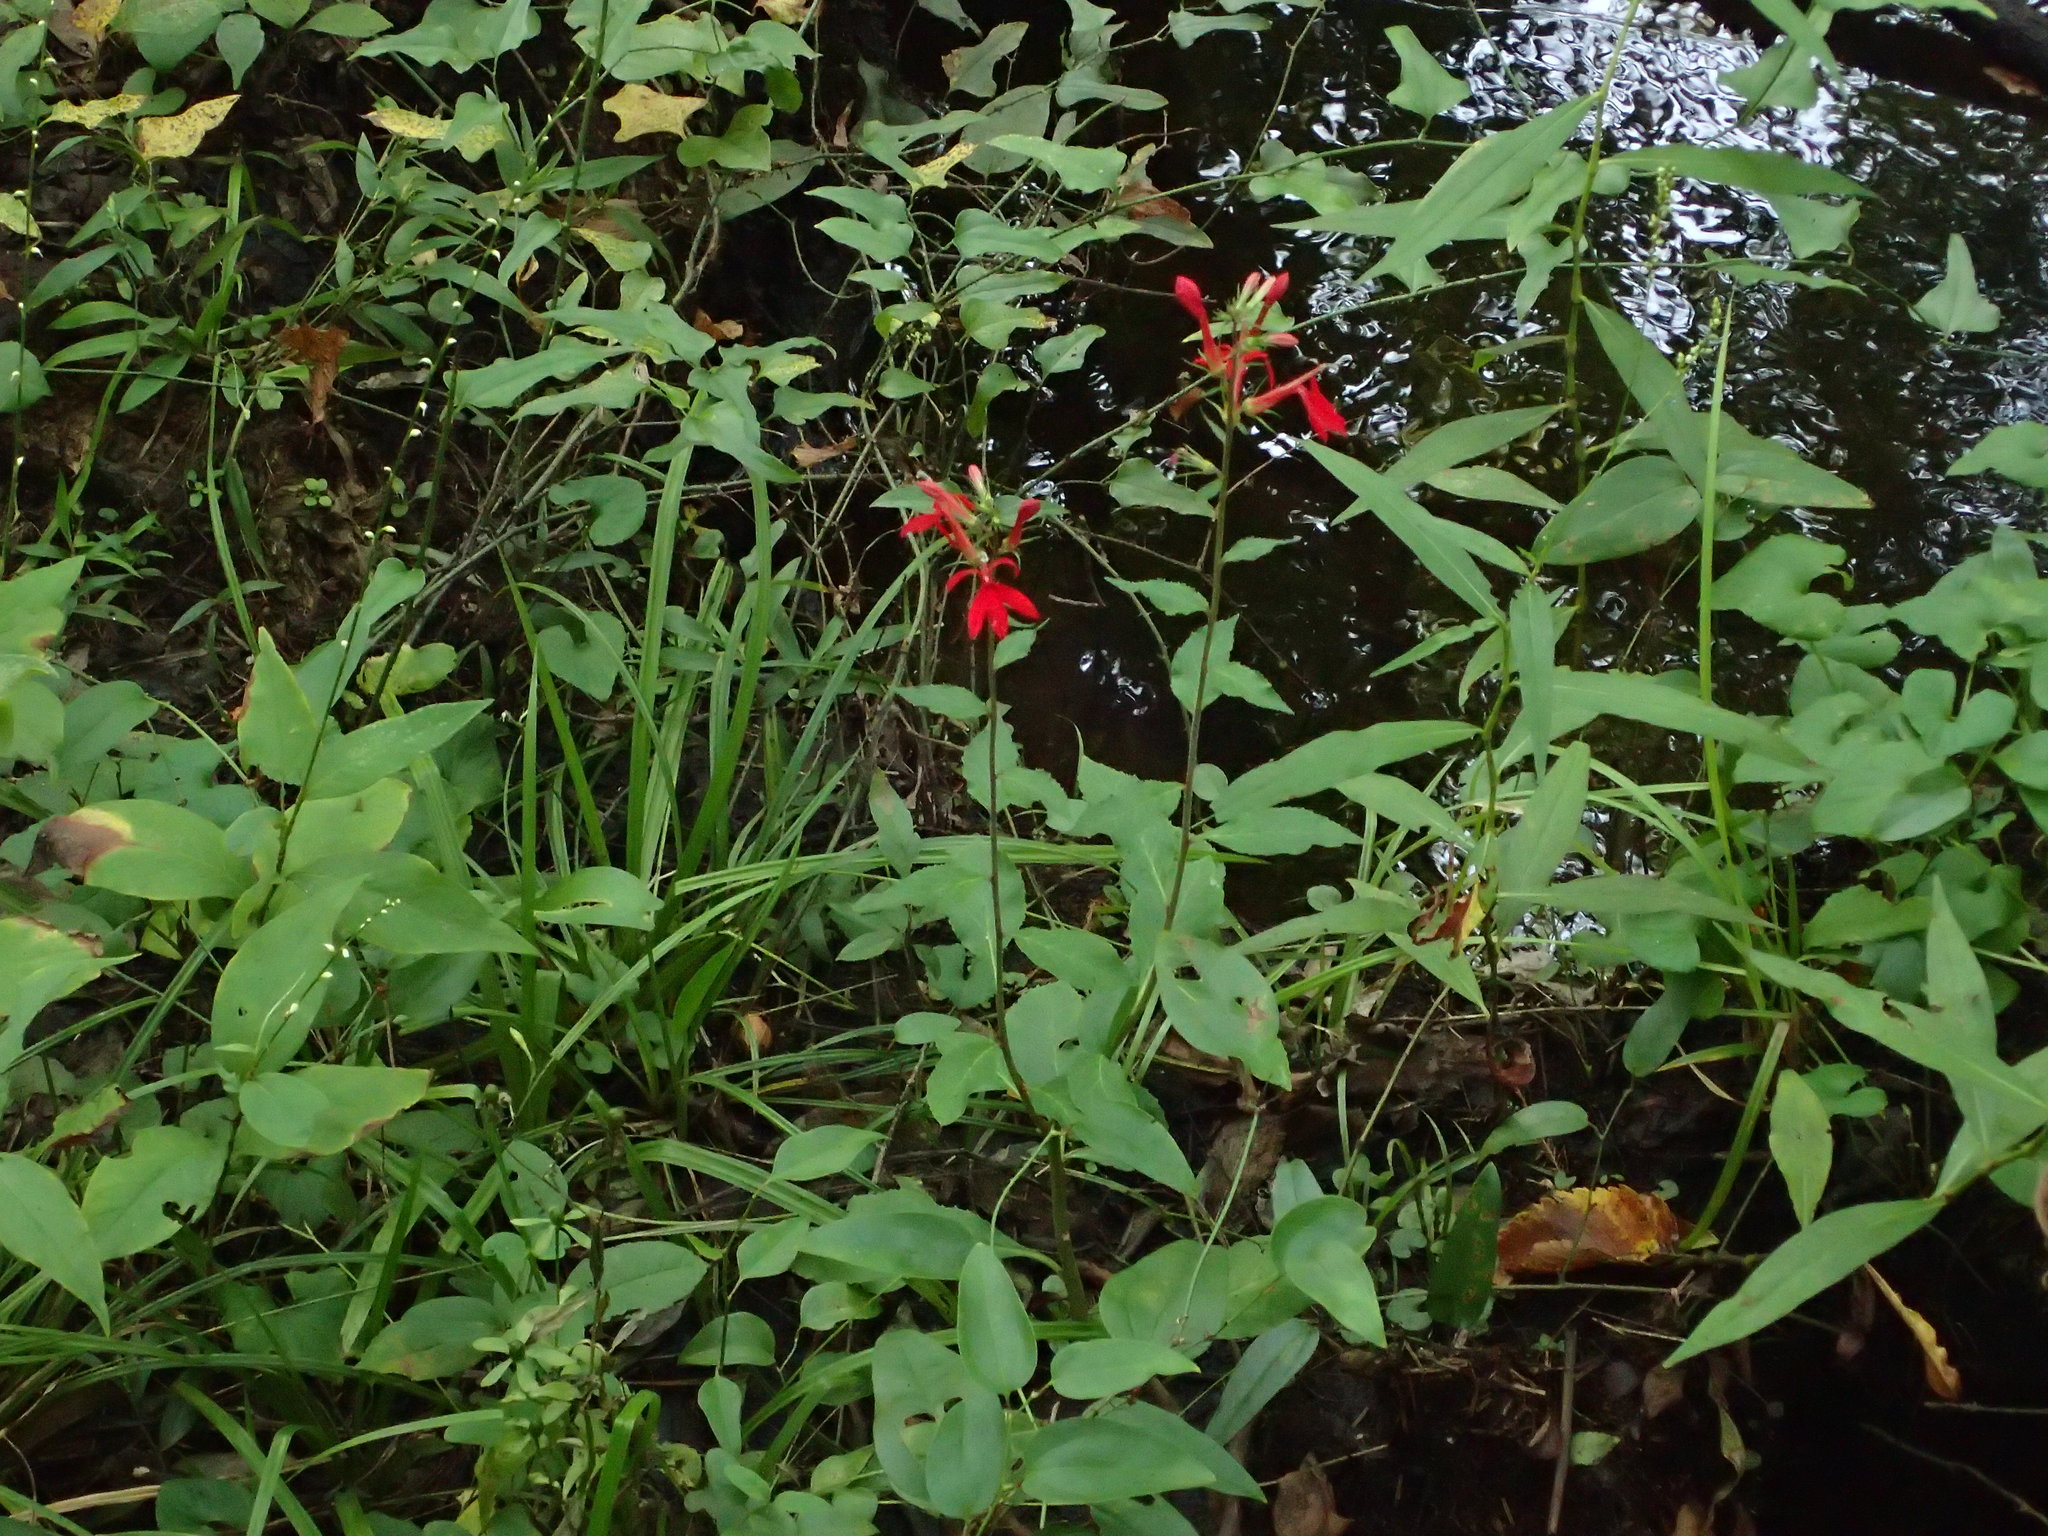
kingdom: Plantae
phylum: Tracheophyta
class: Magnoliopsida
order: Asterales
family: Campanulaceae
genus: Lobelia
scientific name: Lobelia cardinalis
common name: Cardinal flower
